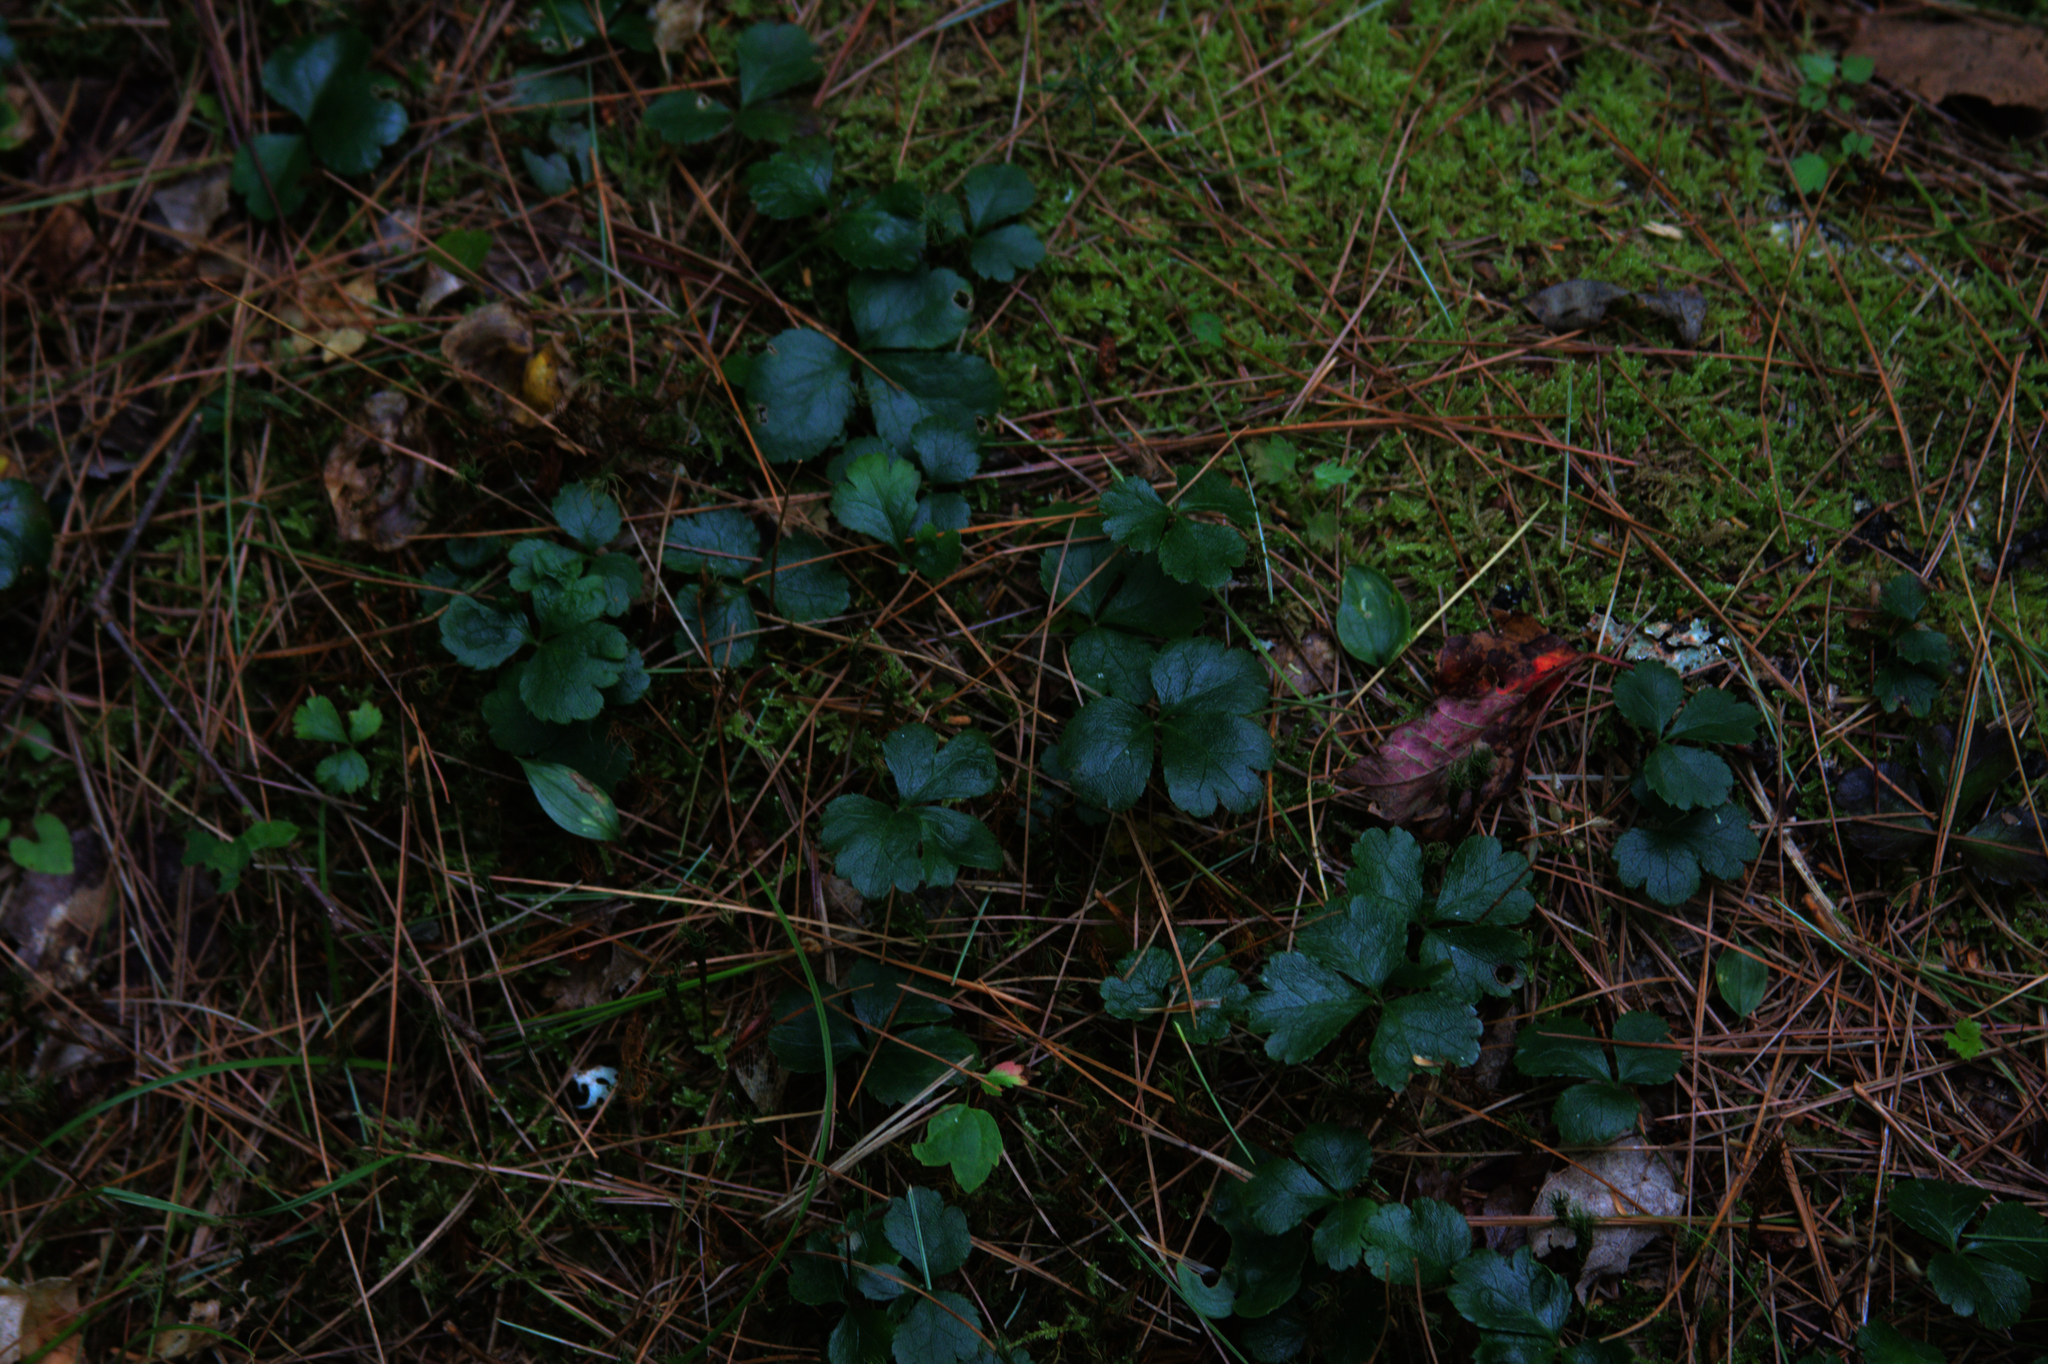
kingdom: Plantae
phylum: Tracheophyta
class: Magnoliopsida
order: Ranunculales
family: Ranunculaceae
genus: Coptis
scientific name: Coptis trifolia
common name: Canker-root
